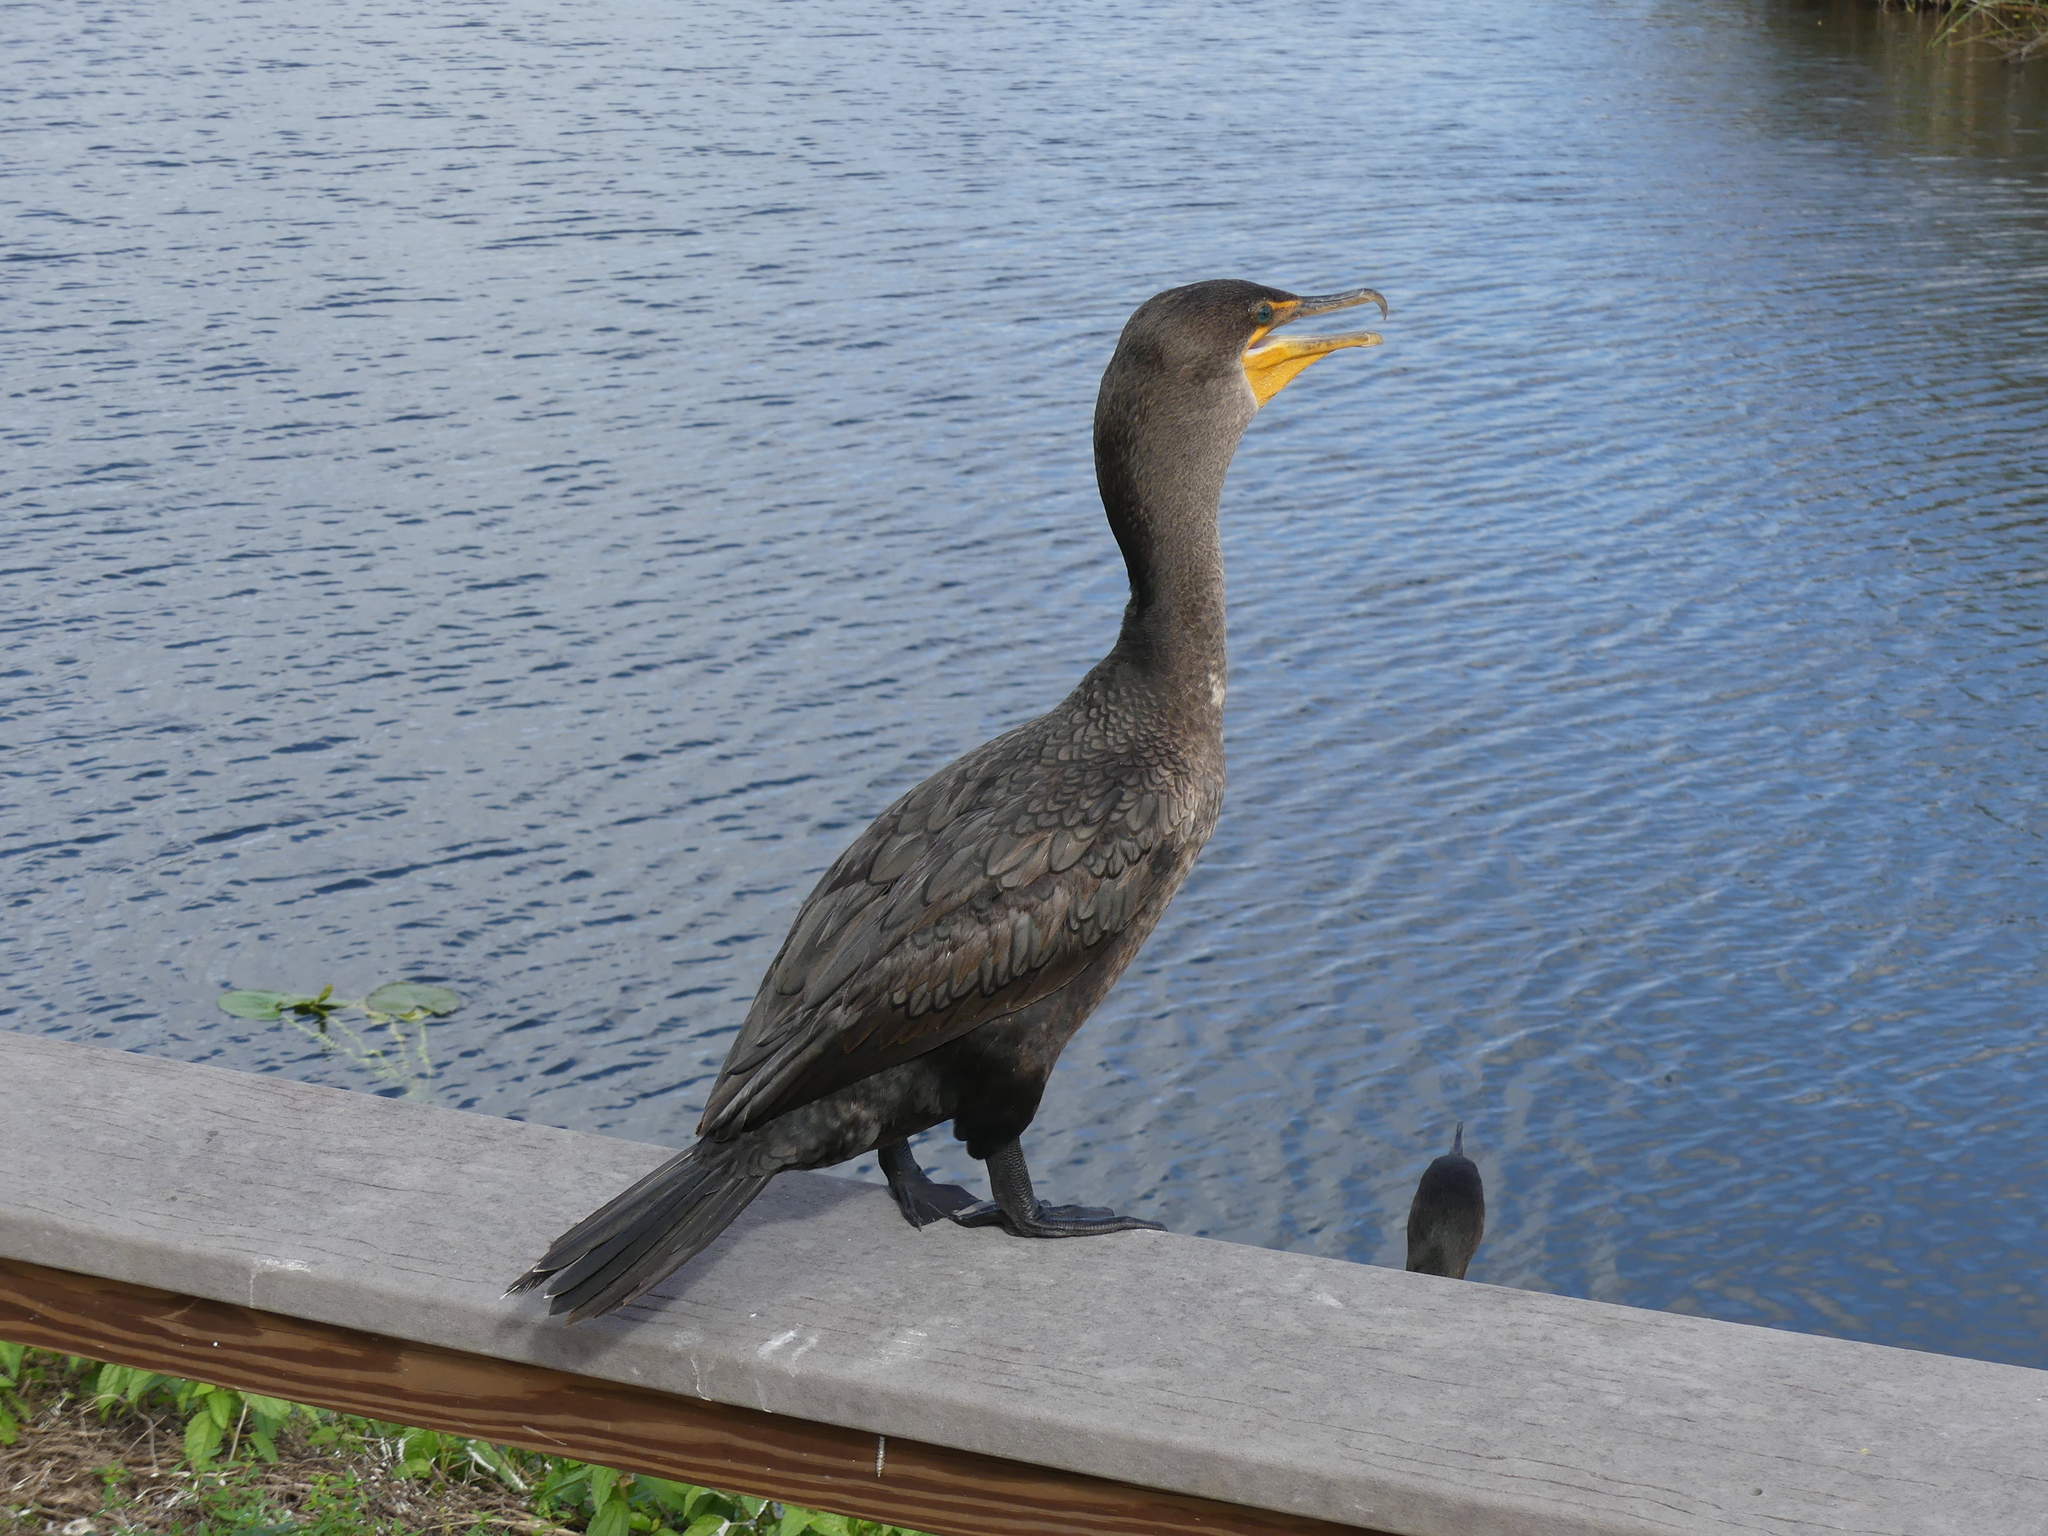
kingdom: Animalia
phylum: Chordata
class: Aves
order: Suliformes
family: Phalacrocoracidae
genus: Phalacrocorax
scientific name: Phalacrocorax auritus
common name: Double-crested cormorant
